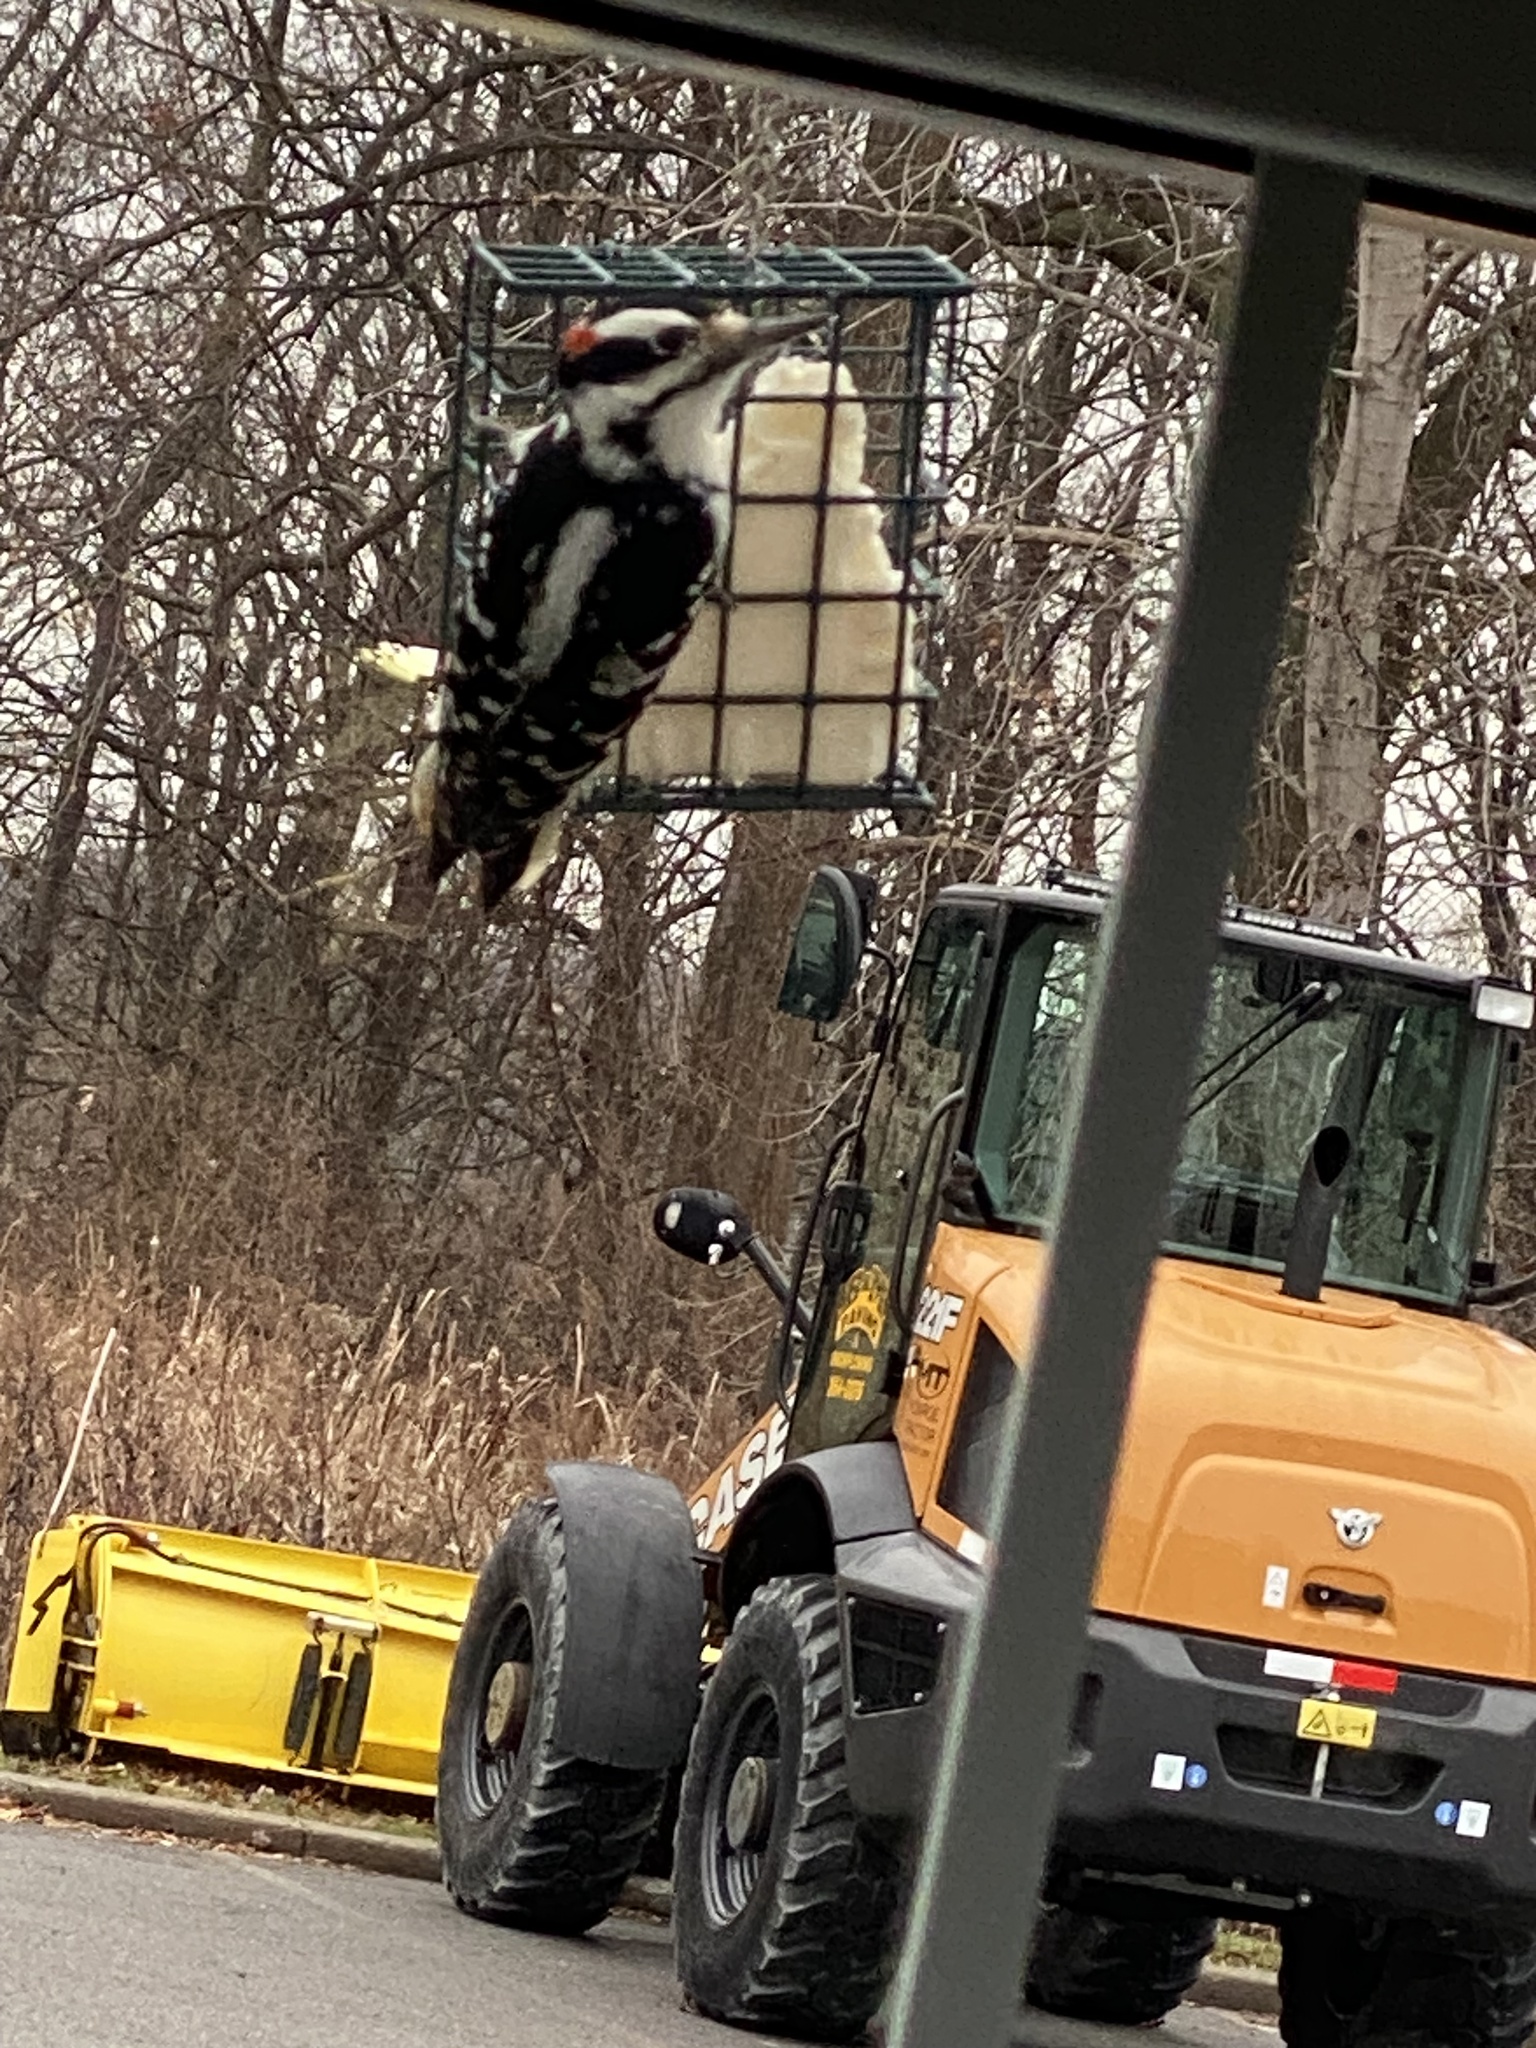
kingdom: Animalia
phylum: Chordata
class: Aves
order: Piciformes
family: Picidae
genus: Leuconotopicus
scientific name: Leuconotopicus villosus
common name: Hairy woodpecker
